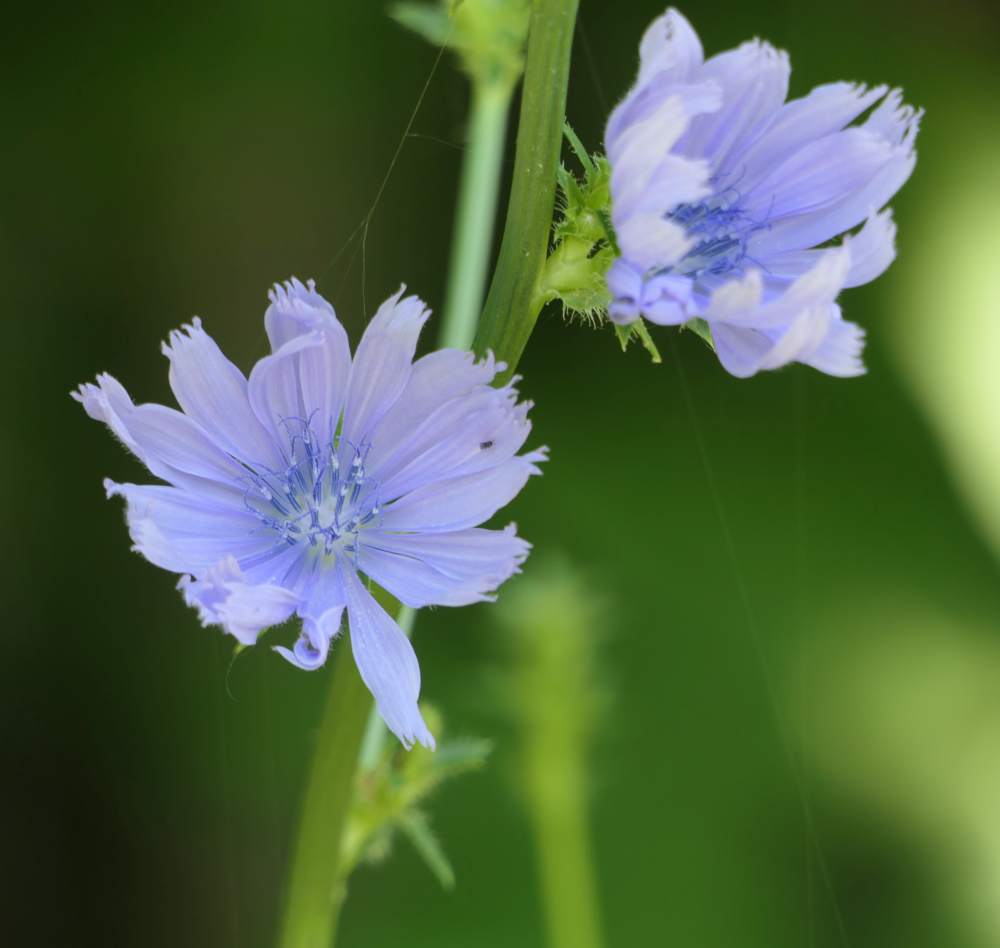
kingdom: Plantae
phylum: Tracheophyta
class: Magnoliopsida
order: Asterales
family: Asteraceae
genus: Cichorium
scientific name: Cichorium intybus
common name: Chicory
